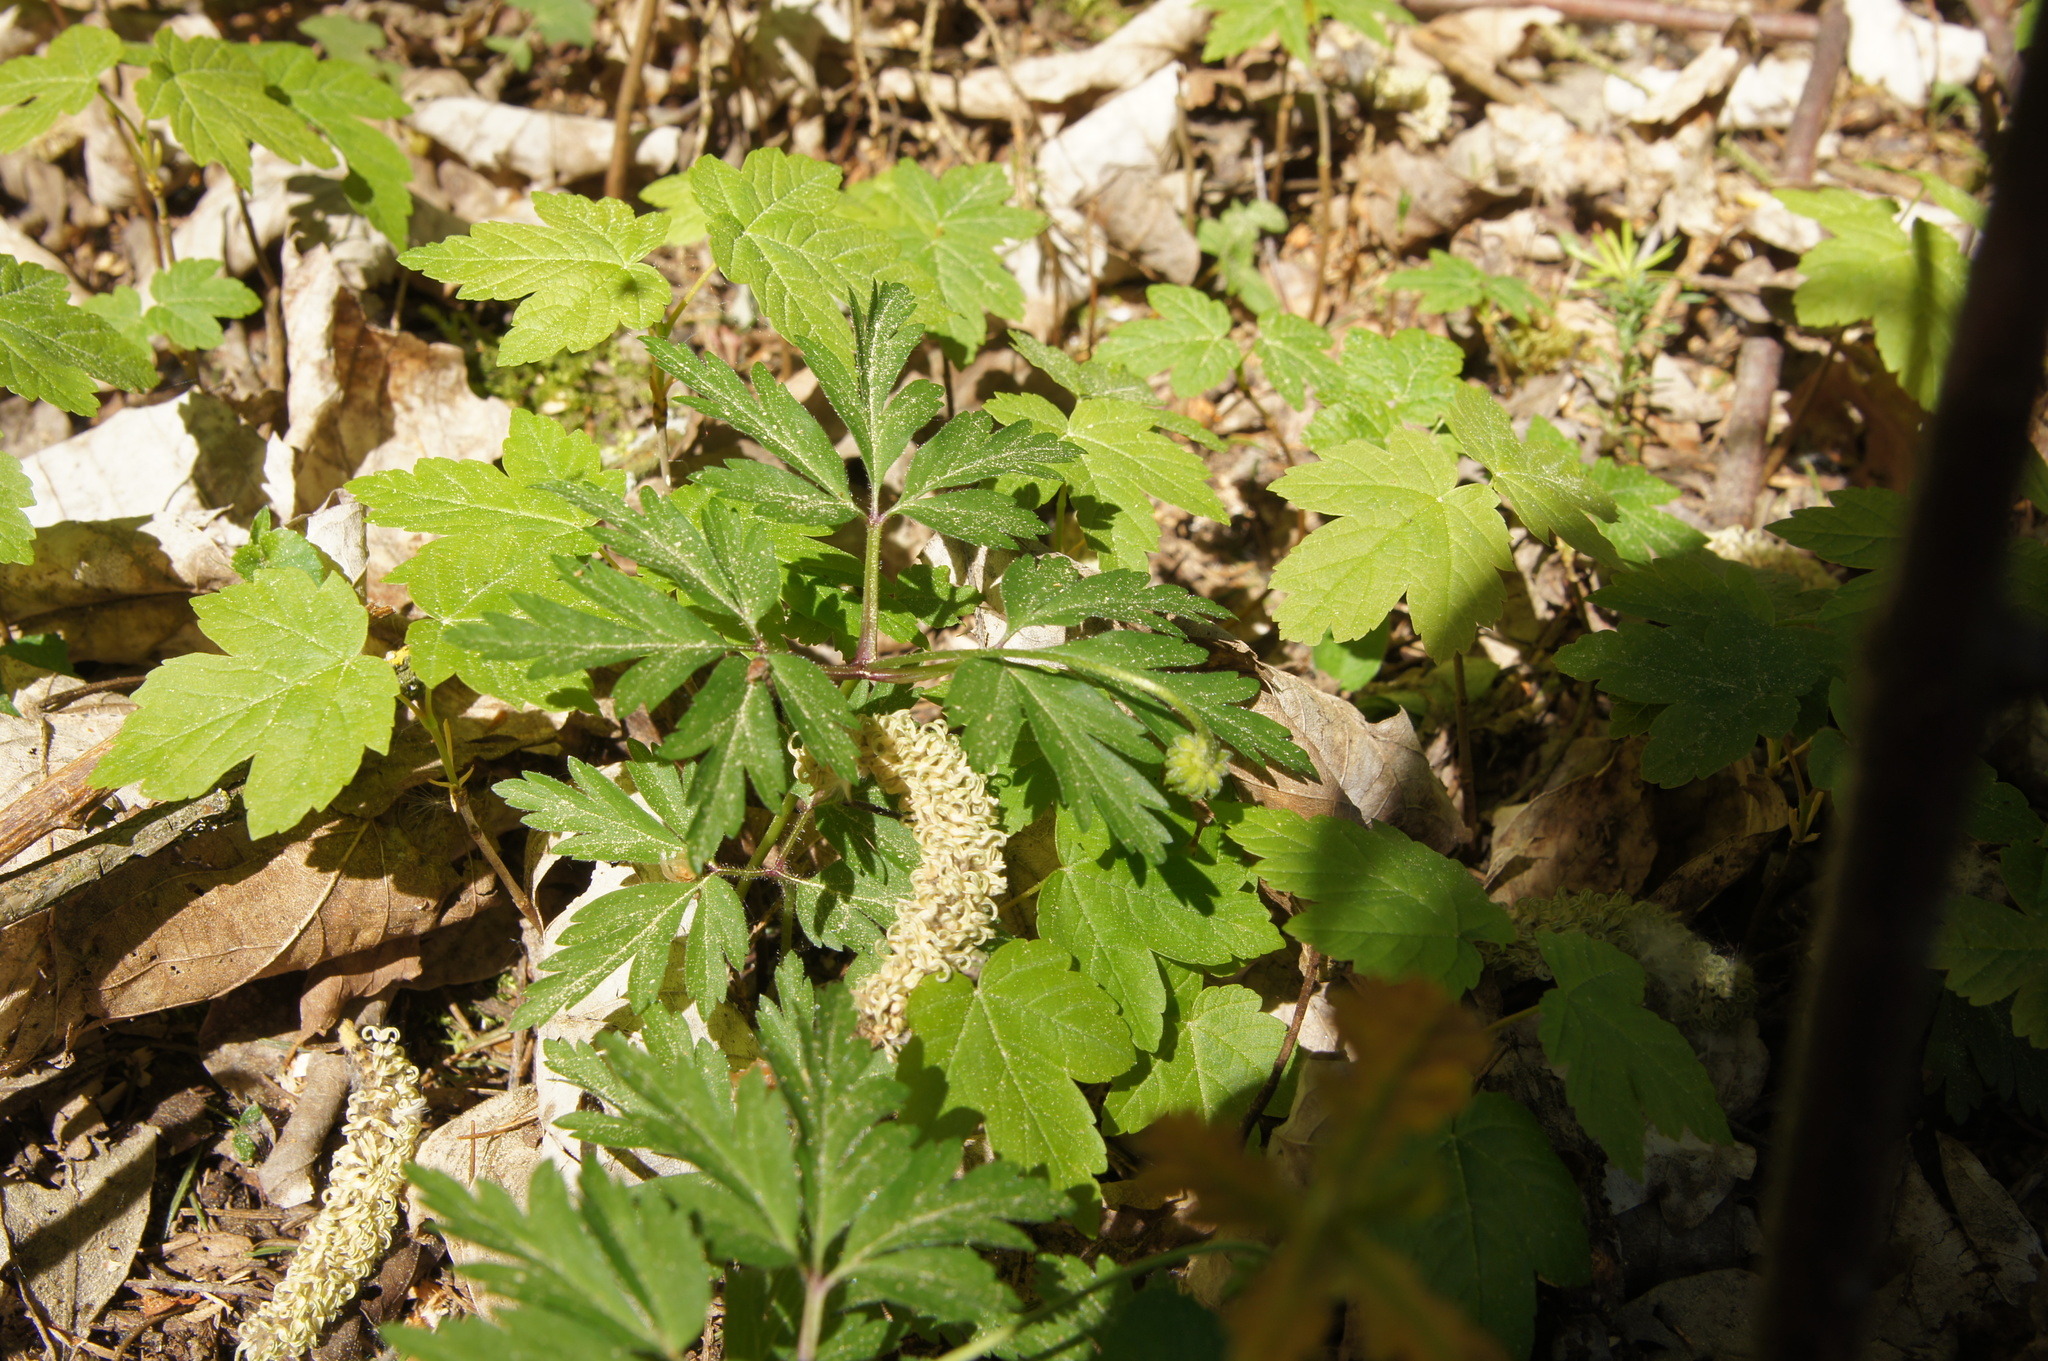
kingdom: Plantae
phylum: Tracheophyta
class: Magnoliopsida
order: Ranunculales
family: Ranunculaceae
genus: Anemone
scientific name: Anemone nemorosa
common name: Wood anemone
